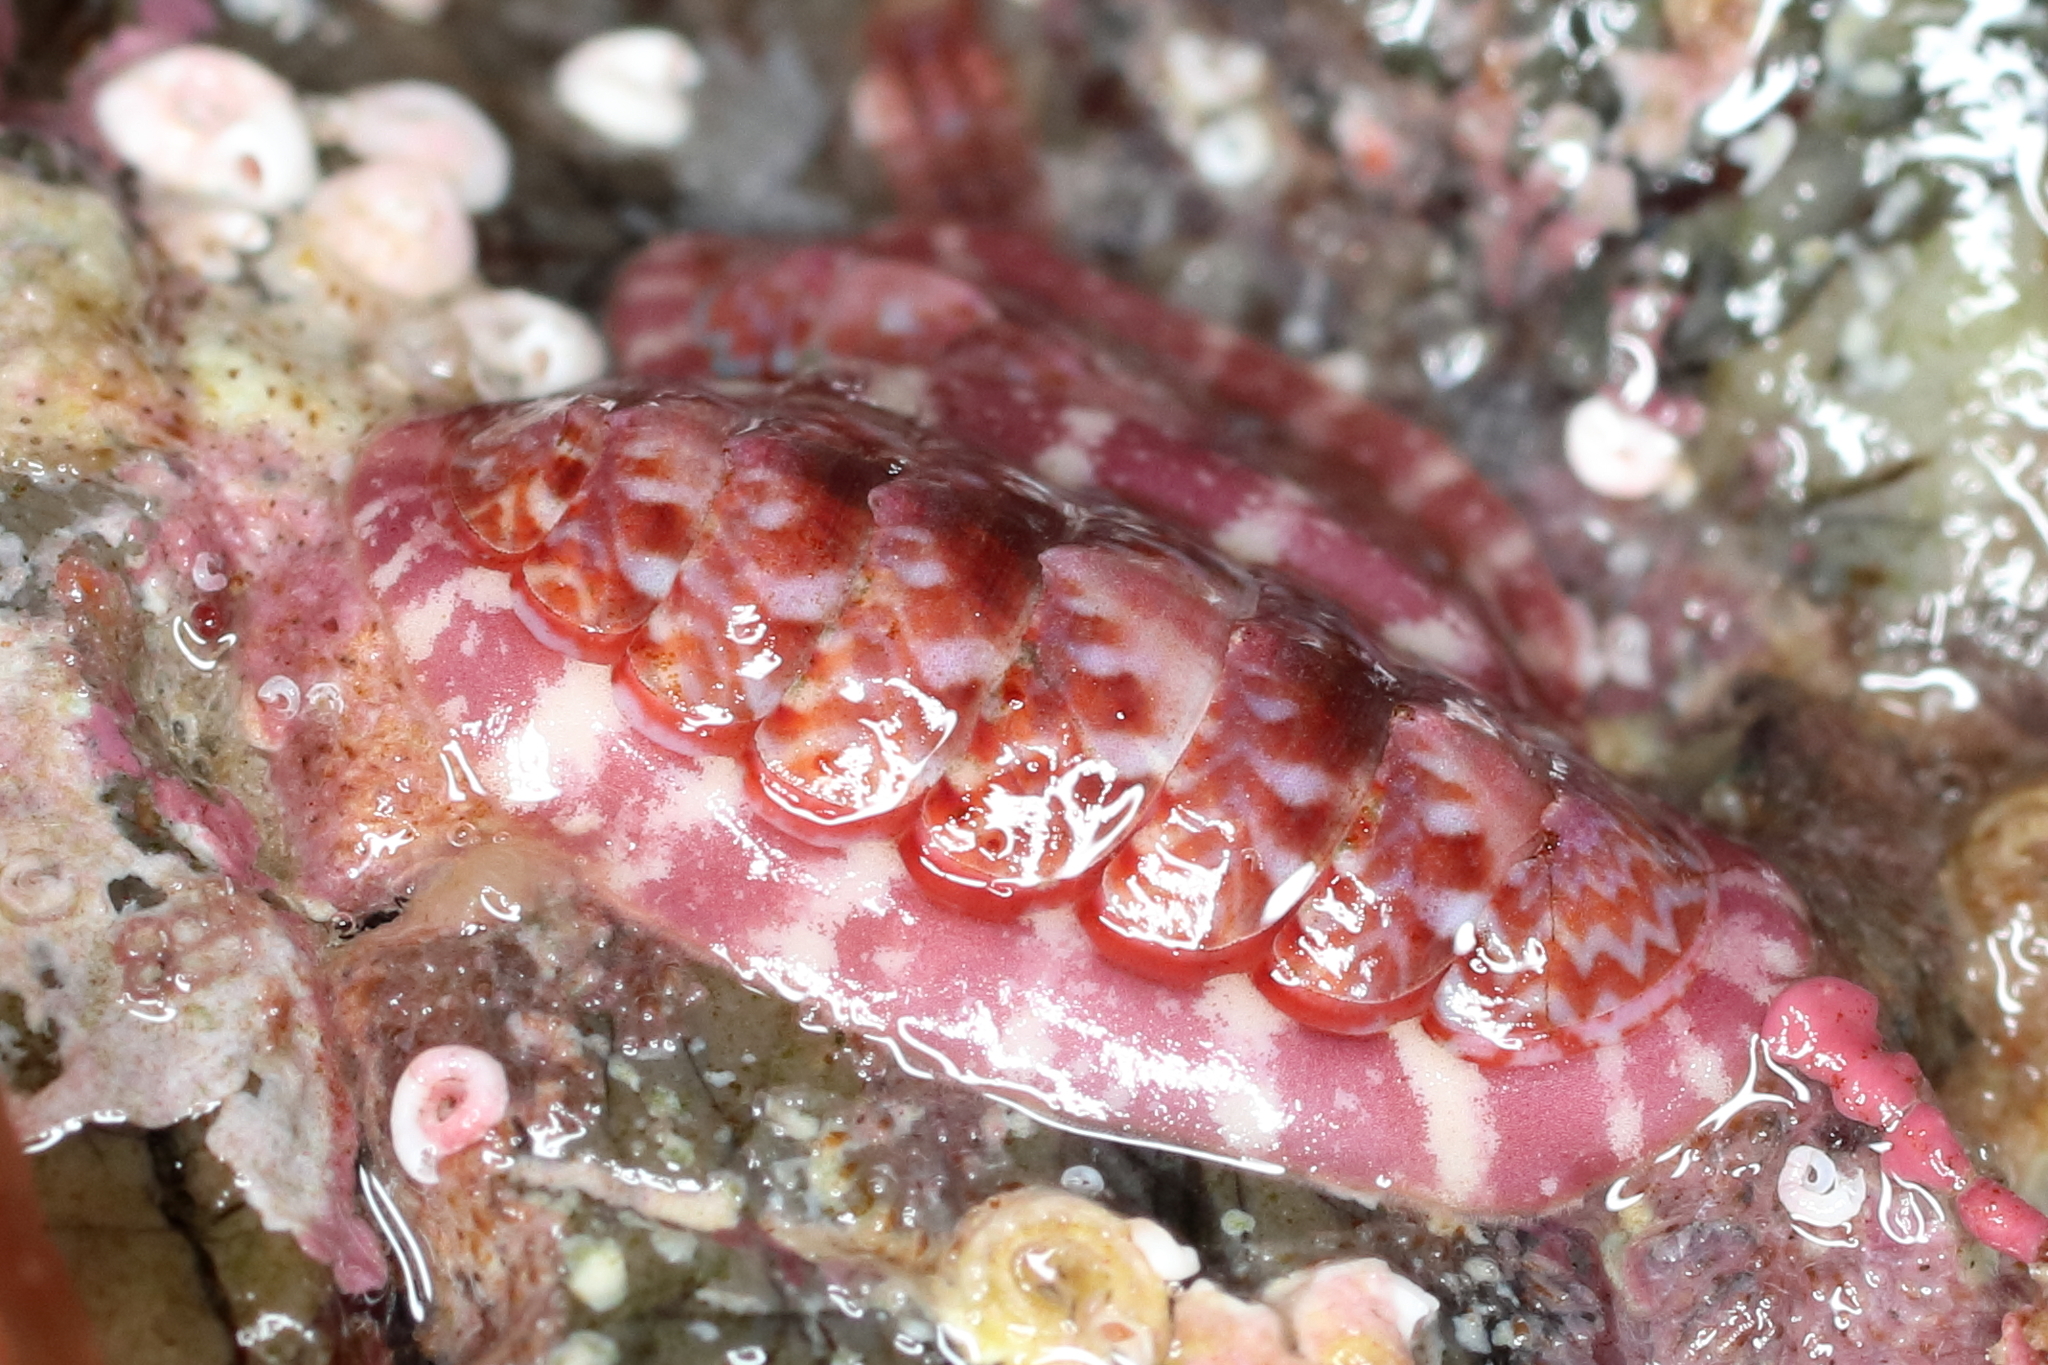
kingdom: Animalia
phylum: Mollusca
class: Polyplacophora
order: Chitonida
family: Tonicellidae
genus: Tonicella
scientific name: Tonicella venusta
